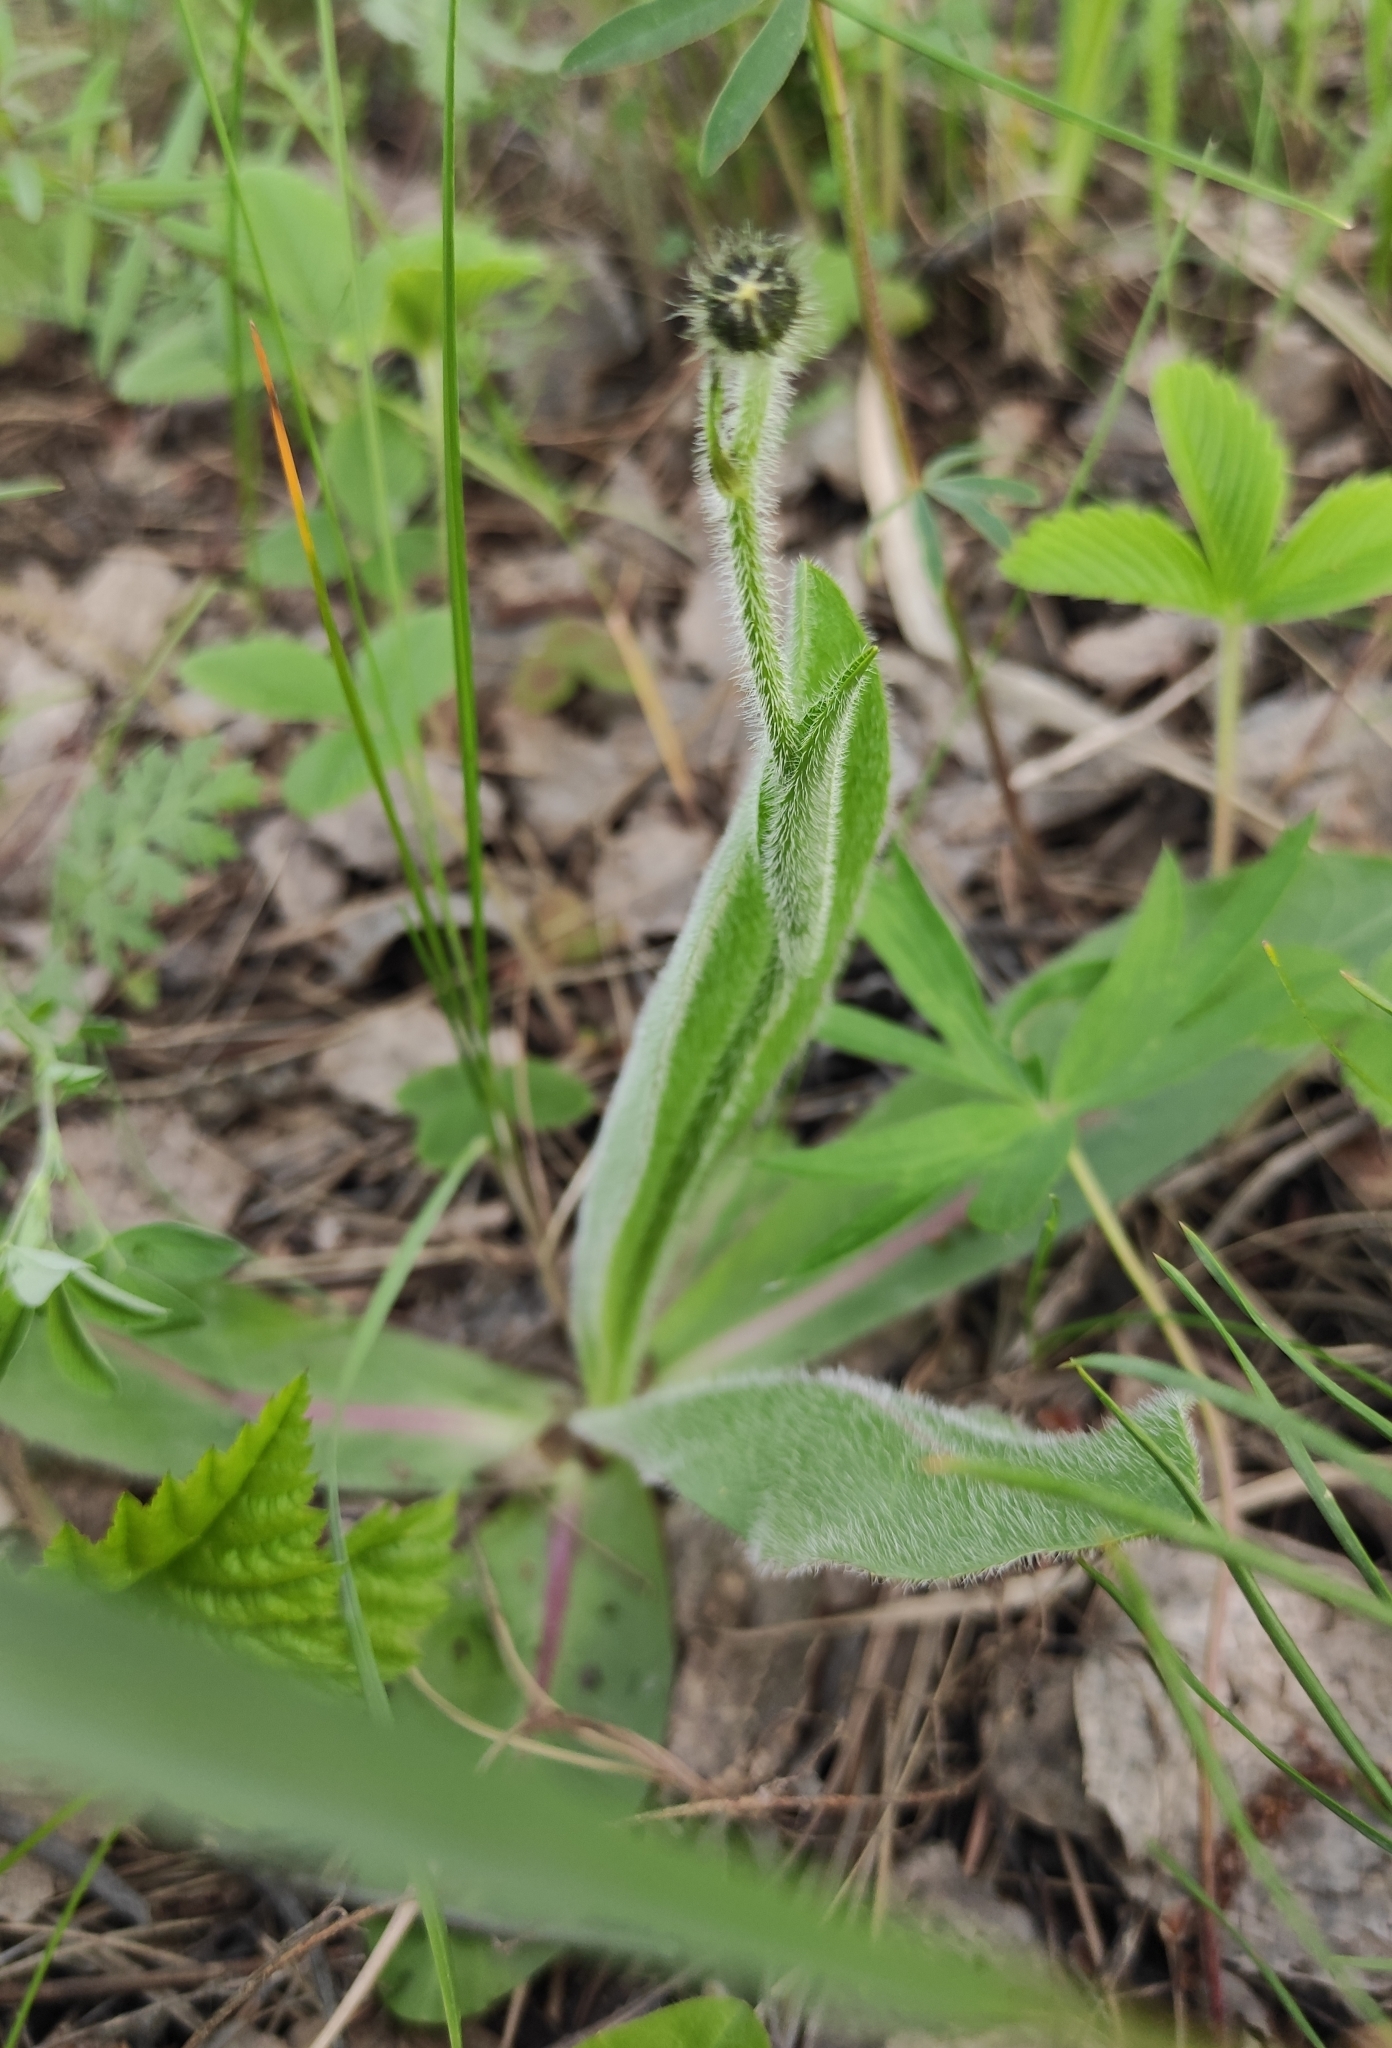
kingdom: Plantae
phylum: Tracheophyta
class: Magnoliopsida
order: Asterales
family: Asteraceae
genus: Trommsdorffia
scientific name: Trommsdorffia maculata
